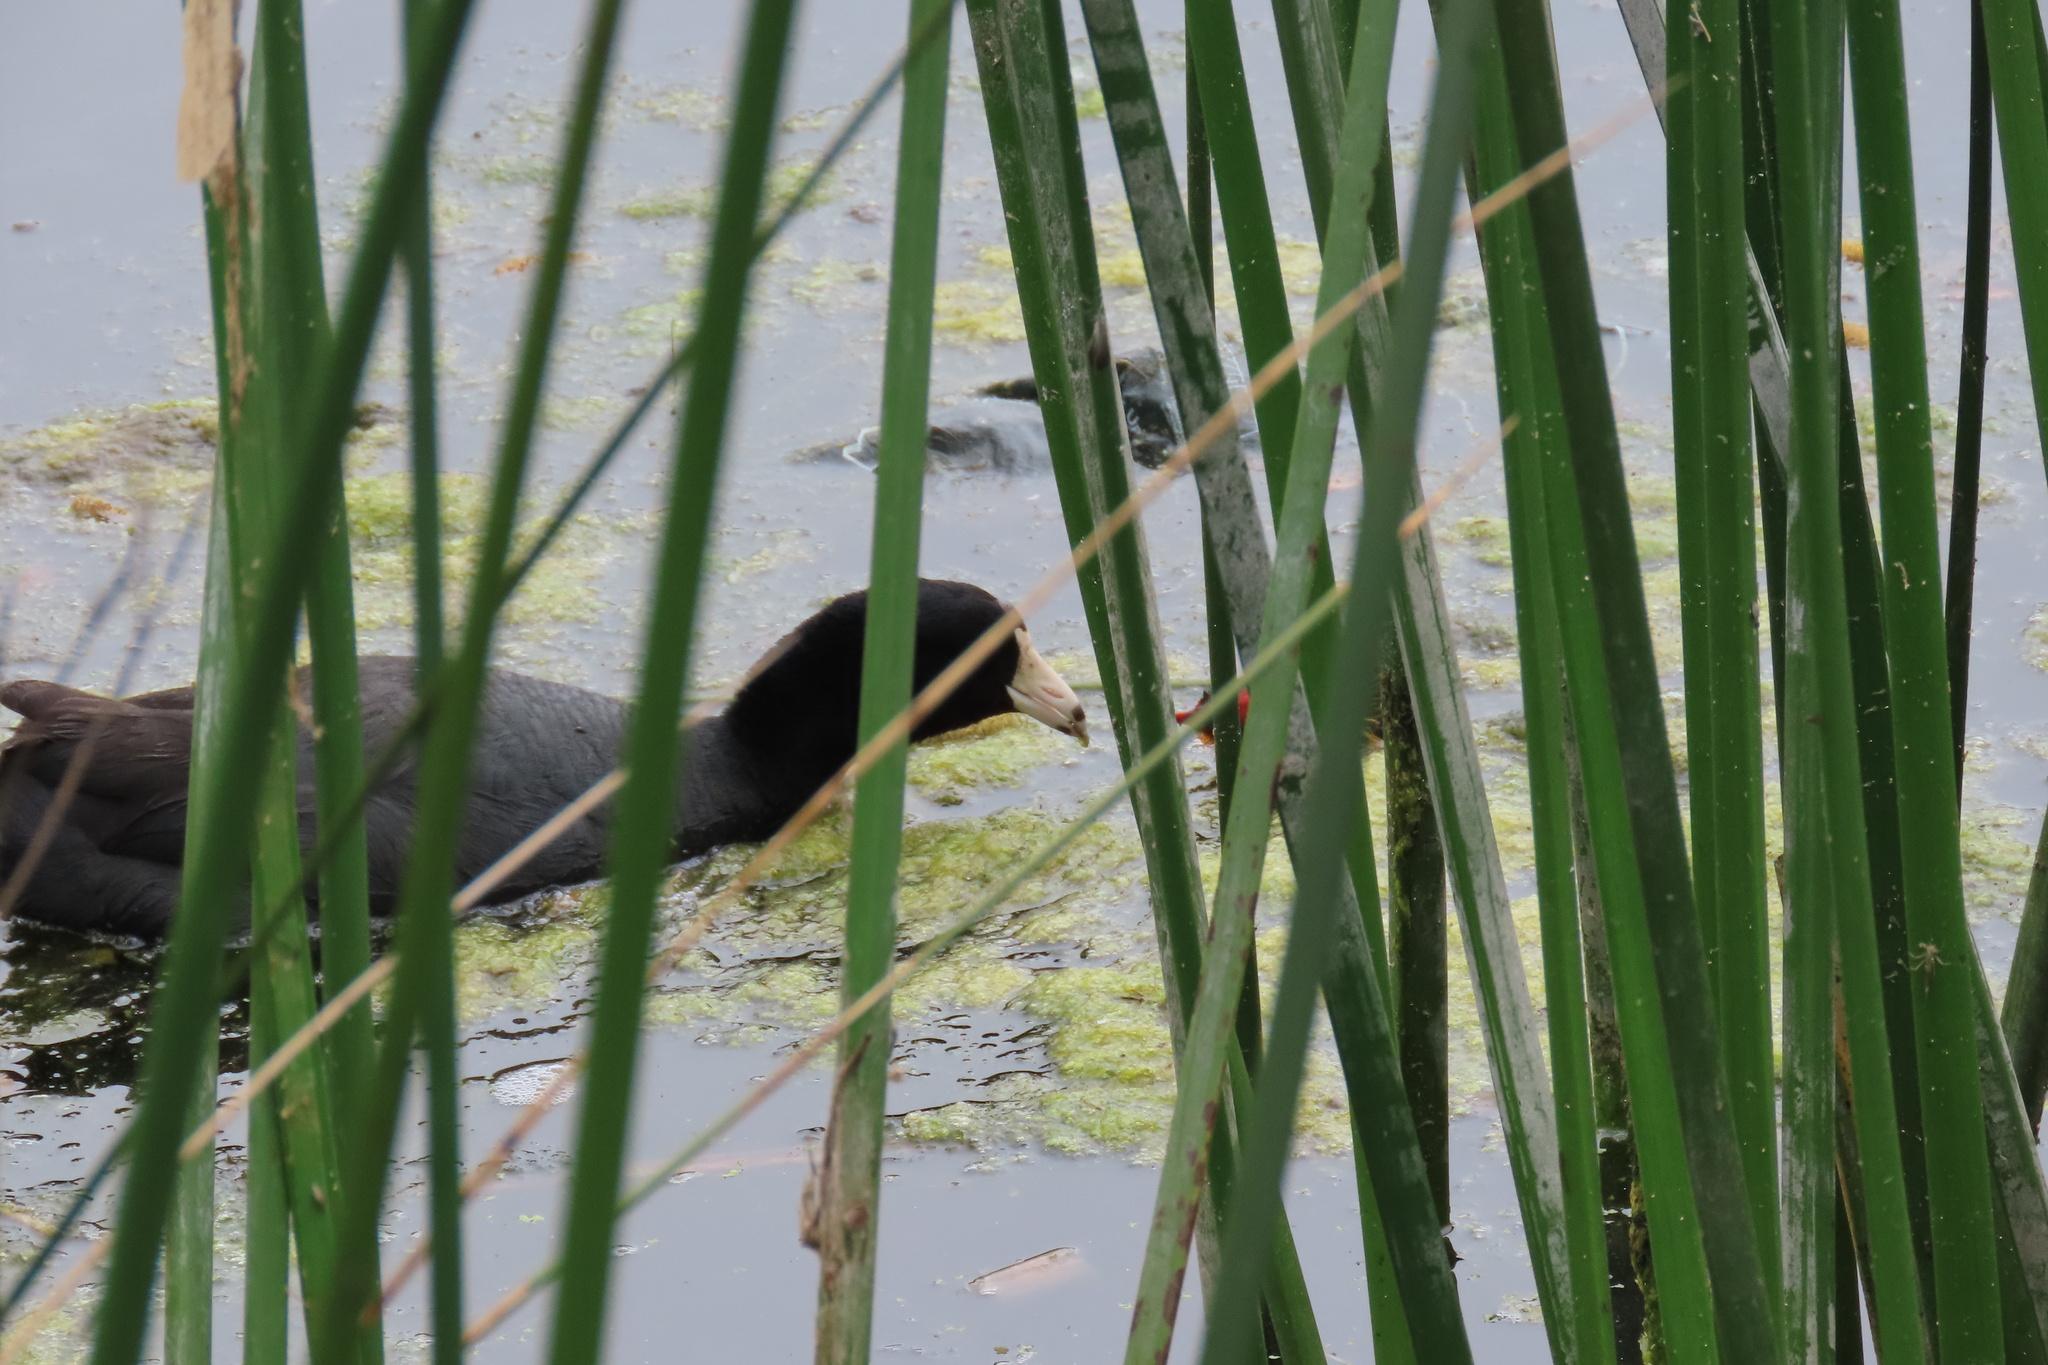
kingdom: Animalia
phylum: Chordata
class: Aves
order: Gruiformes
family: Rallidae
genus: Fulica
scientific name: Fulica americana
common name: American coot
